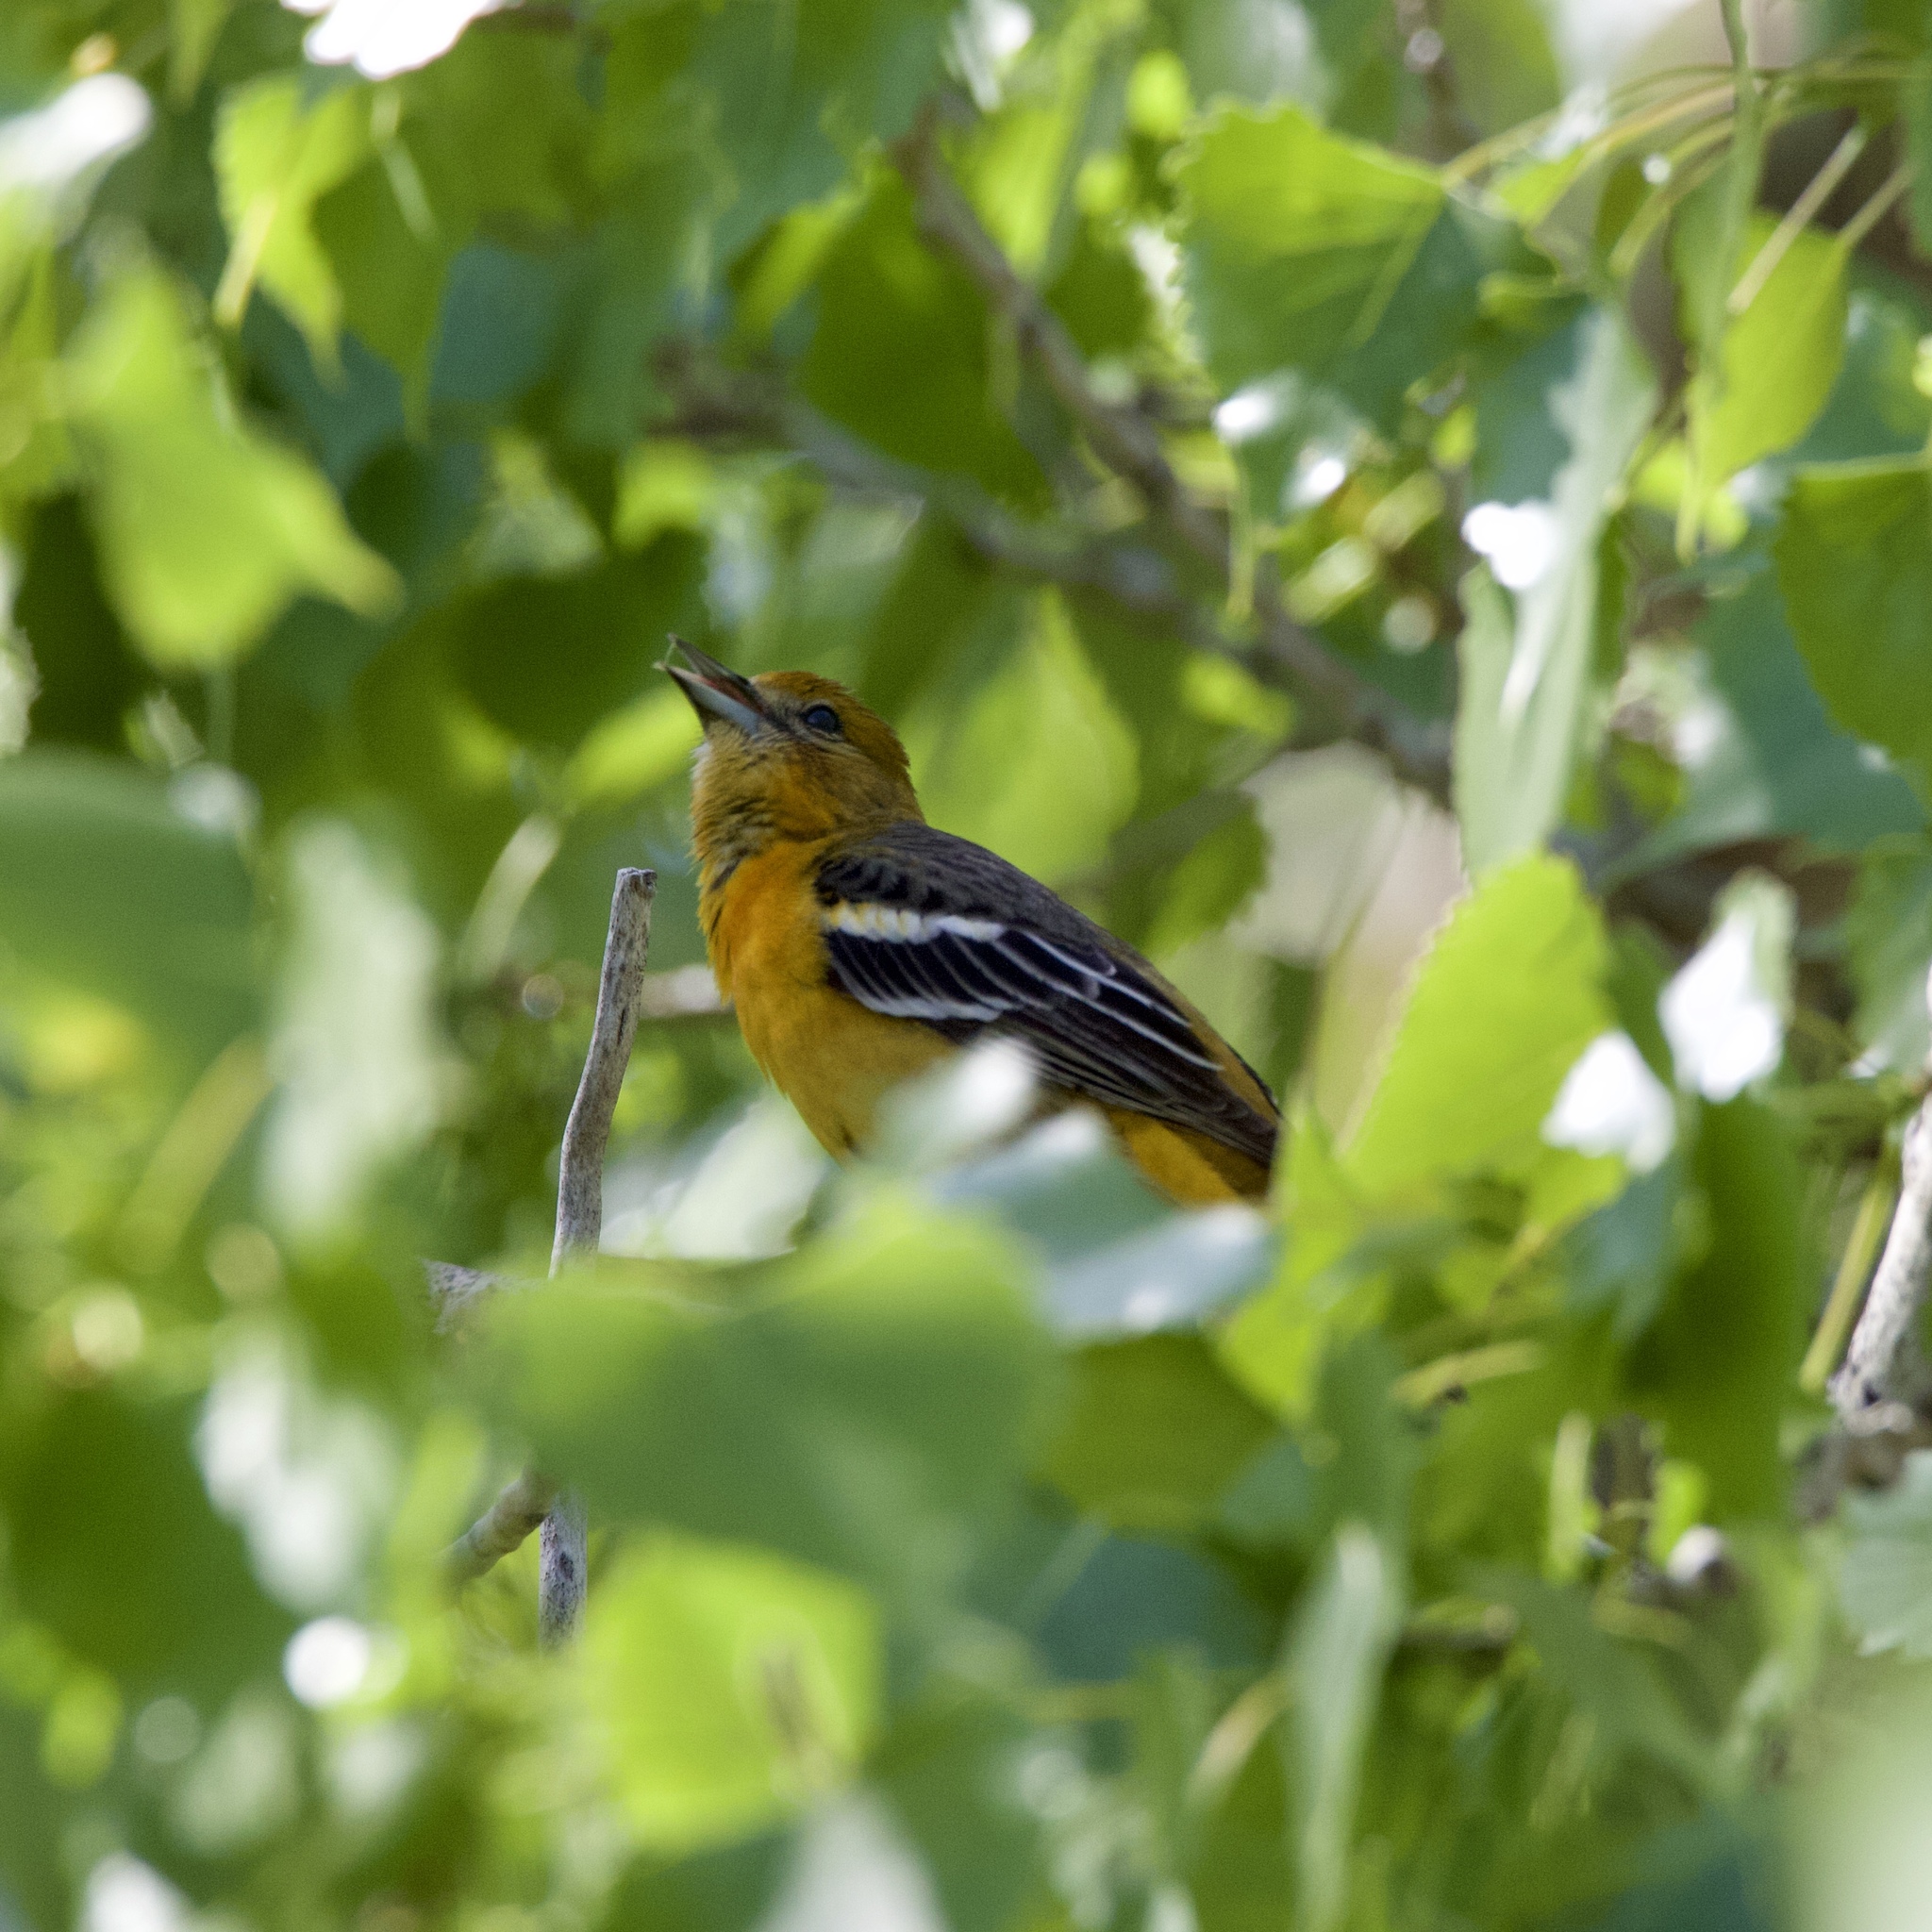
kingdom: Animalia
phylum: Chordata
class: Aves
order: Passeriformes
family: Icteridae
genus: Icterus
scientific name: Icterus galbula
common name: Baltimore oriole
